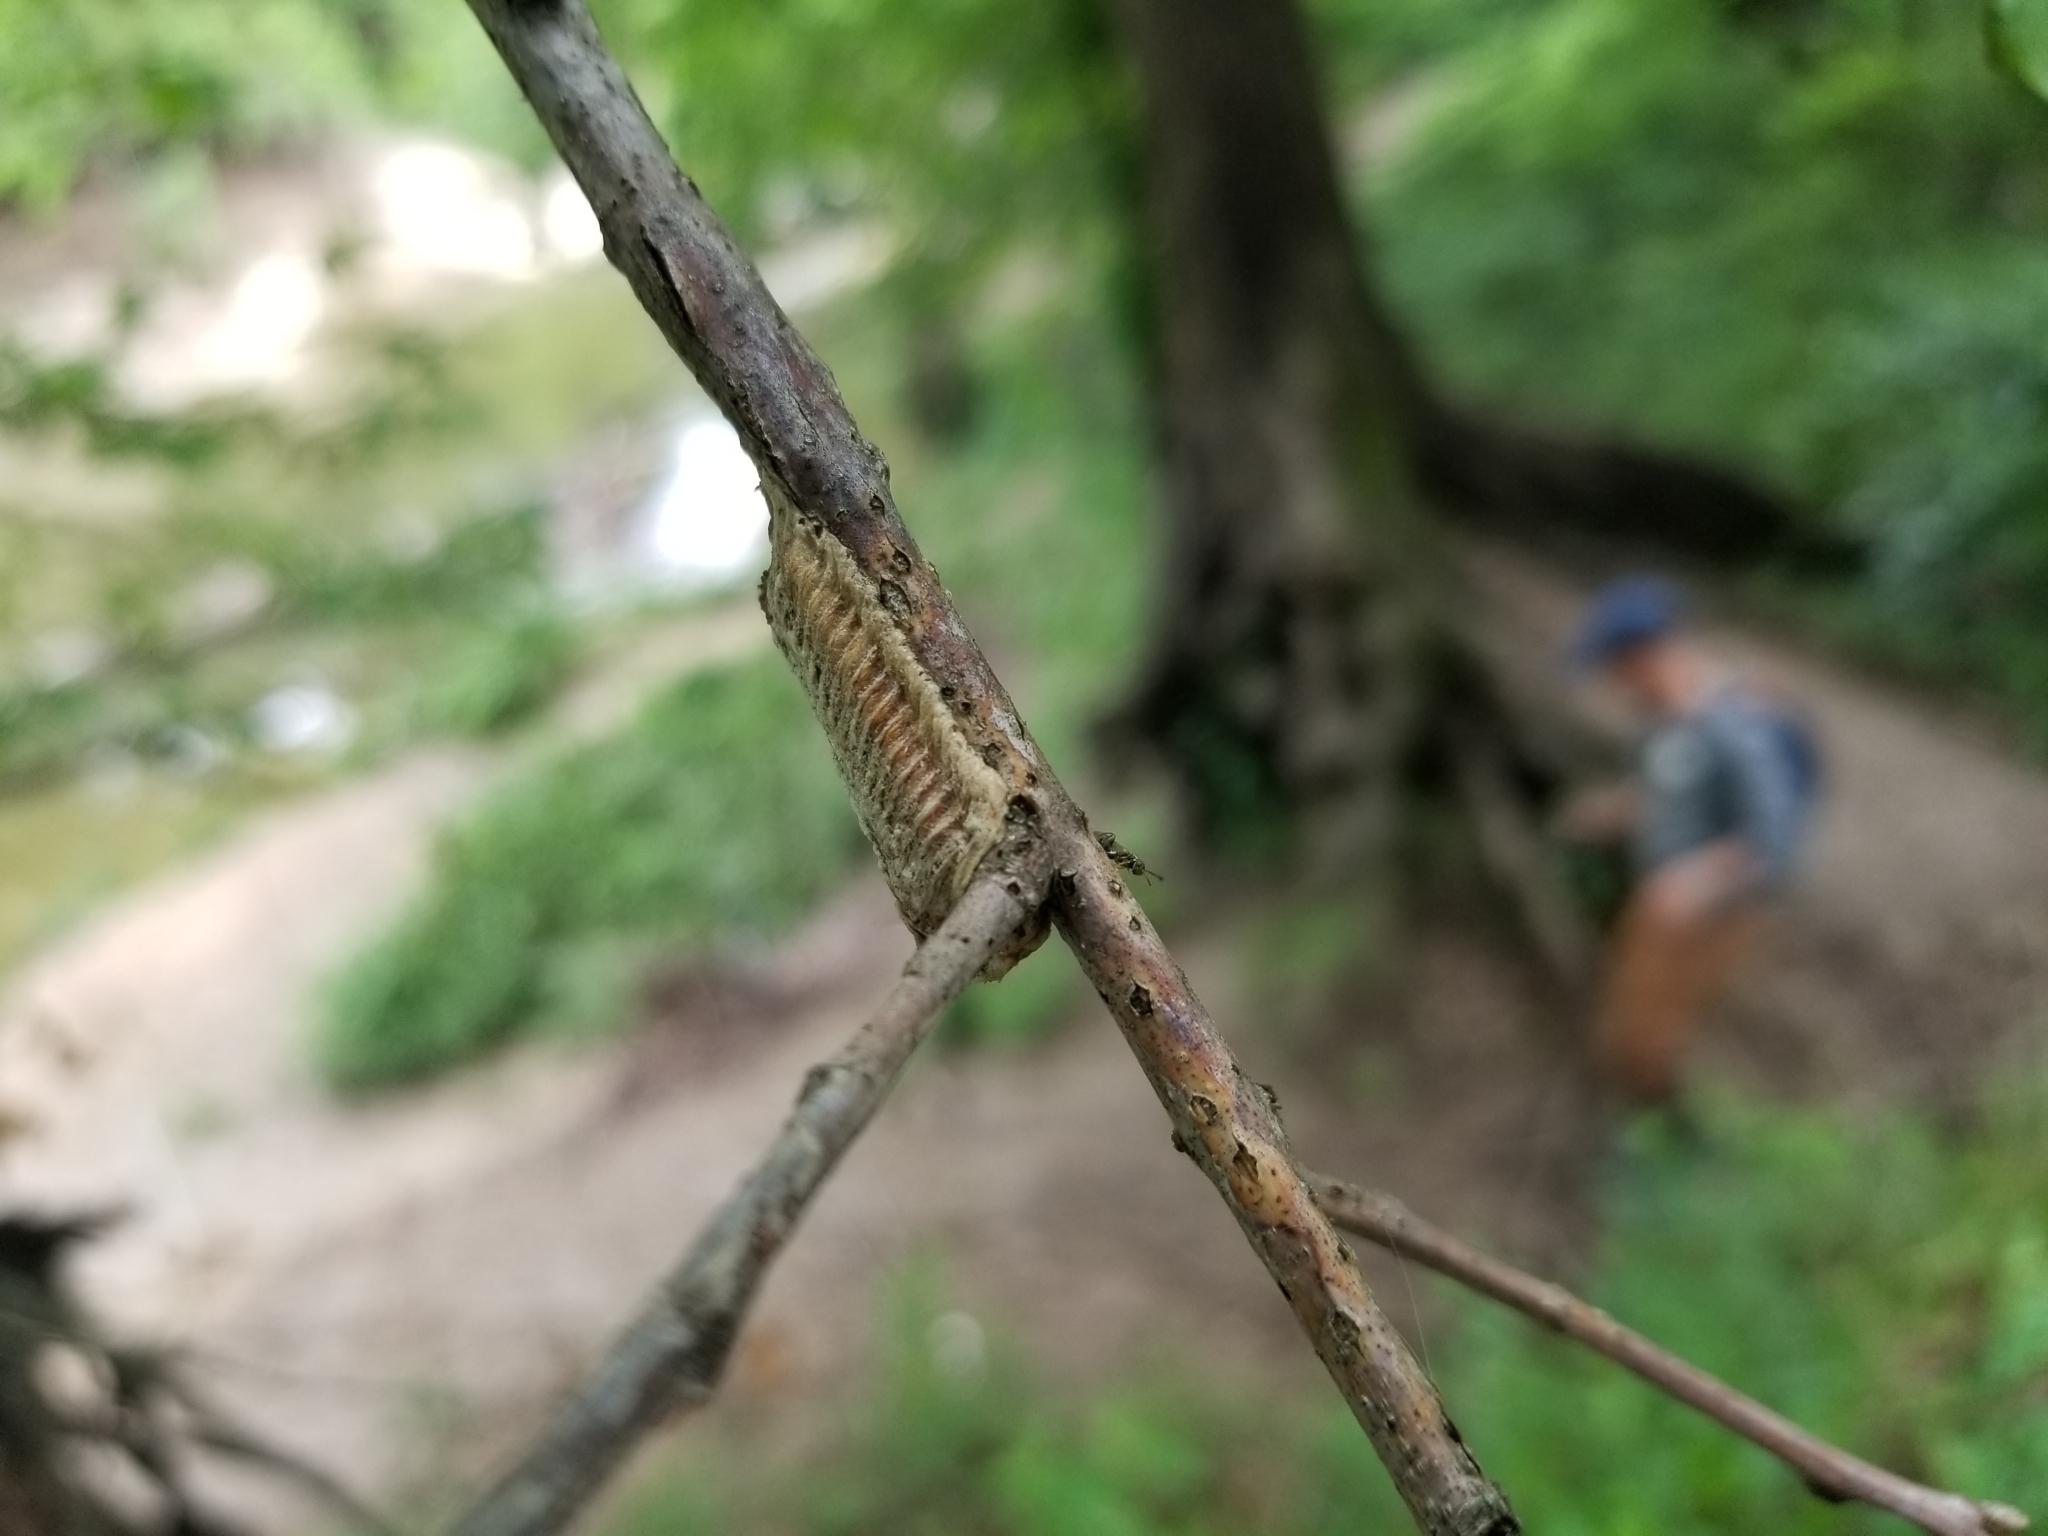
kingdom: Animalia
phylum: Arthropoda
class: Insecta
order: Mantodea
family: Mantidae
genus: Stagmomantis
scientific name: Stagmomantis carolina
